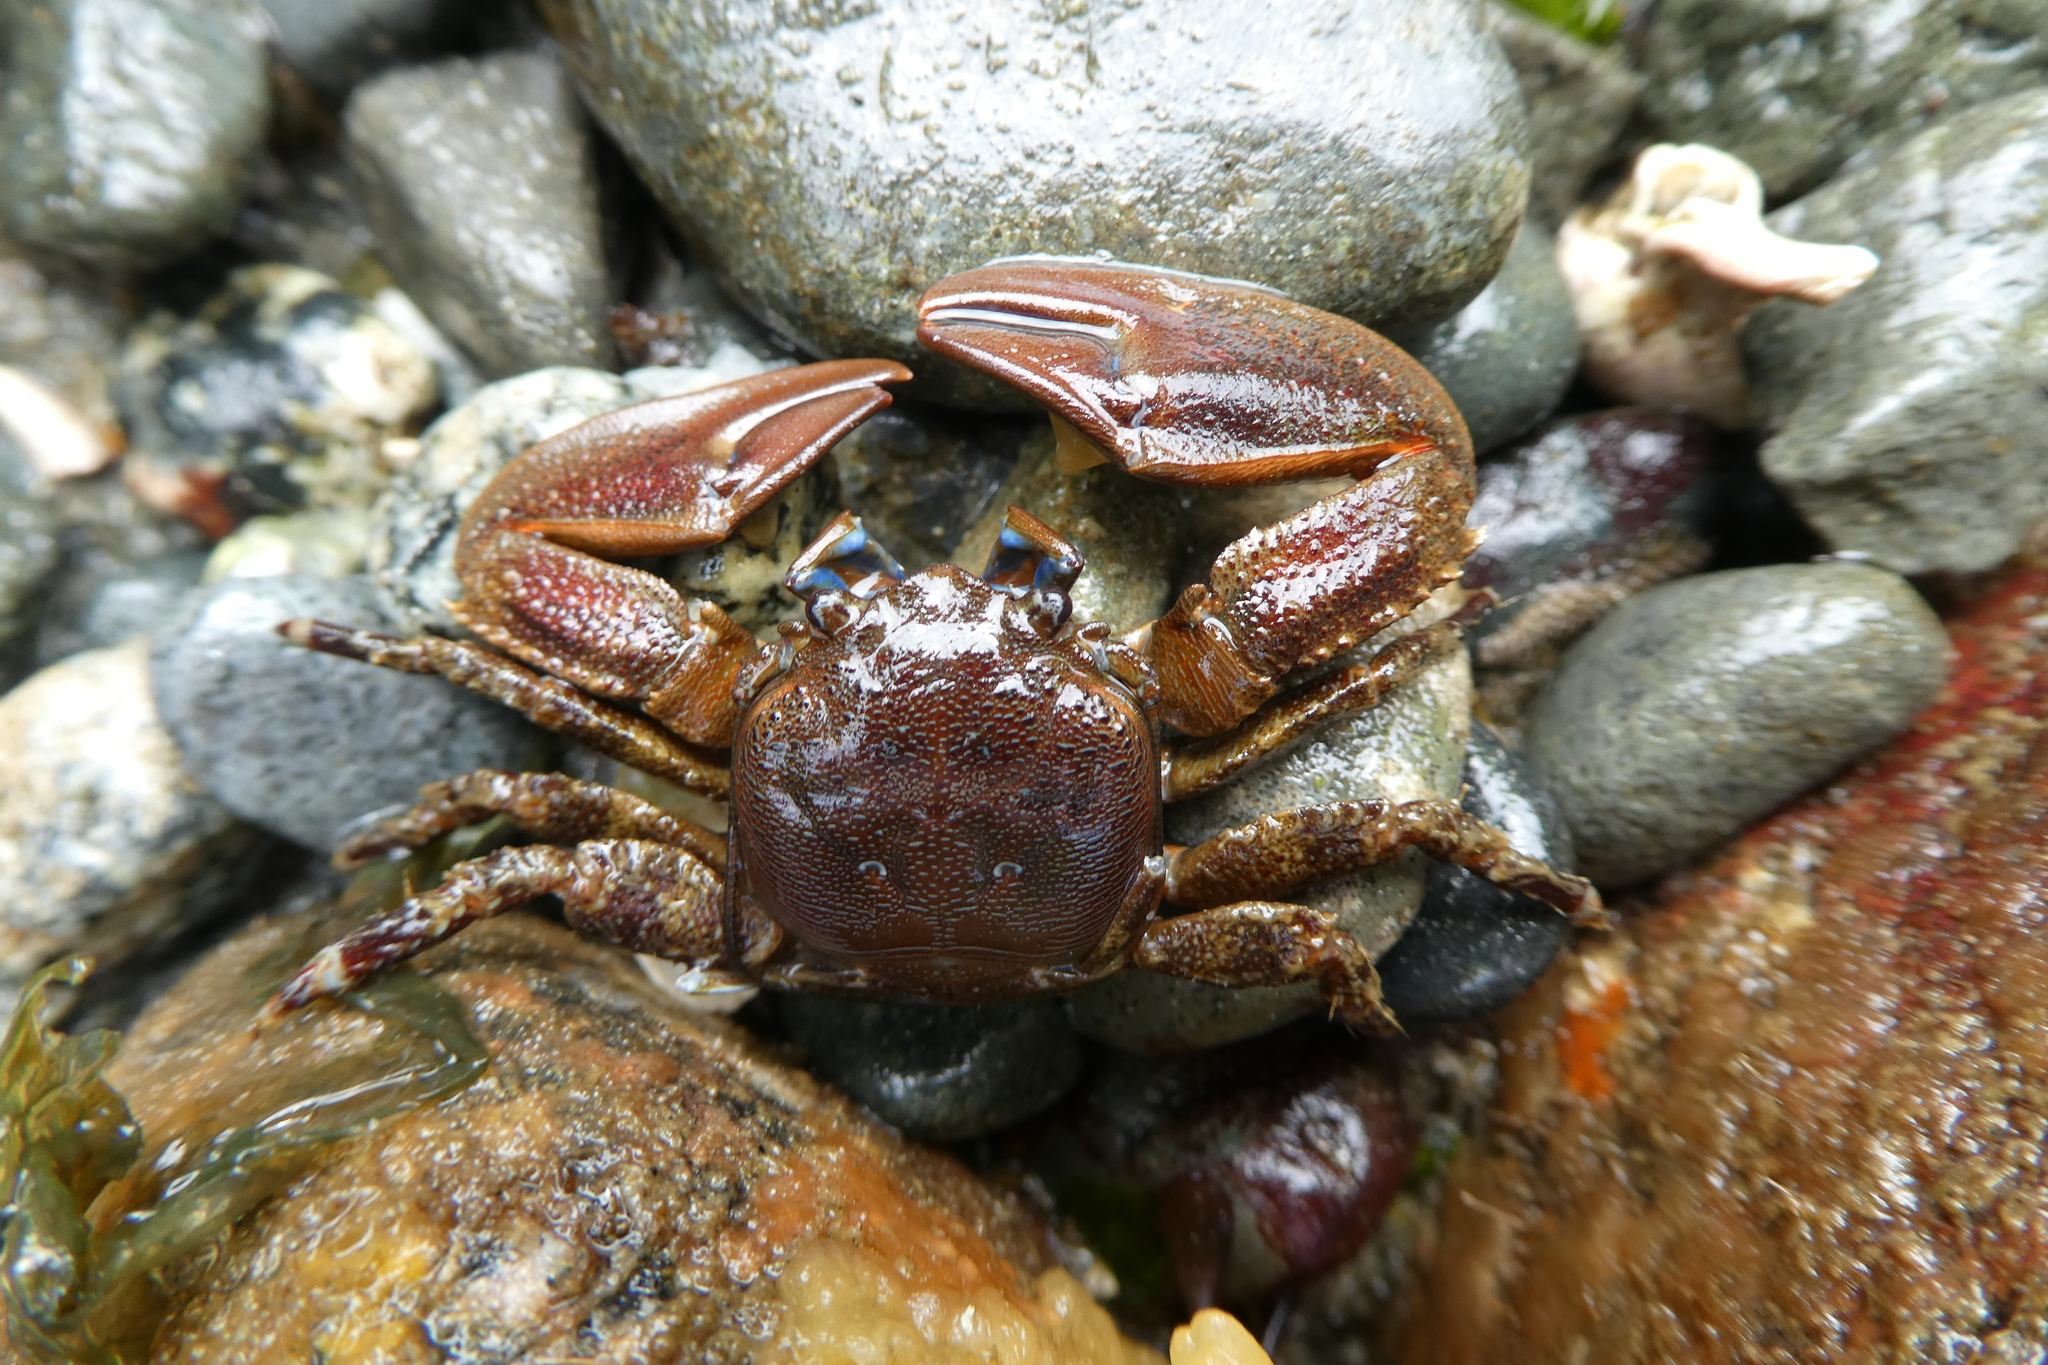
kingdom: Animalia
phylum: Arthropoda
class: Malacostraca
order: Decapoda
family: Porcellanidae
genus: Petrolisthes
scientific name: Petrolisthes eriomerus
